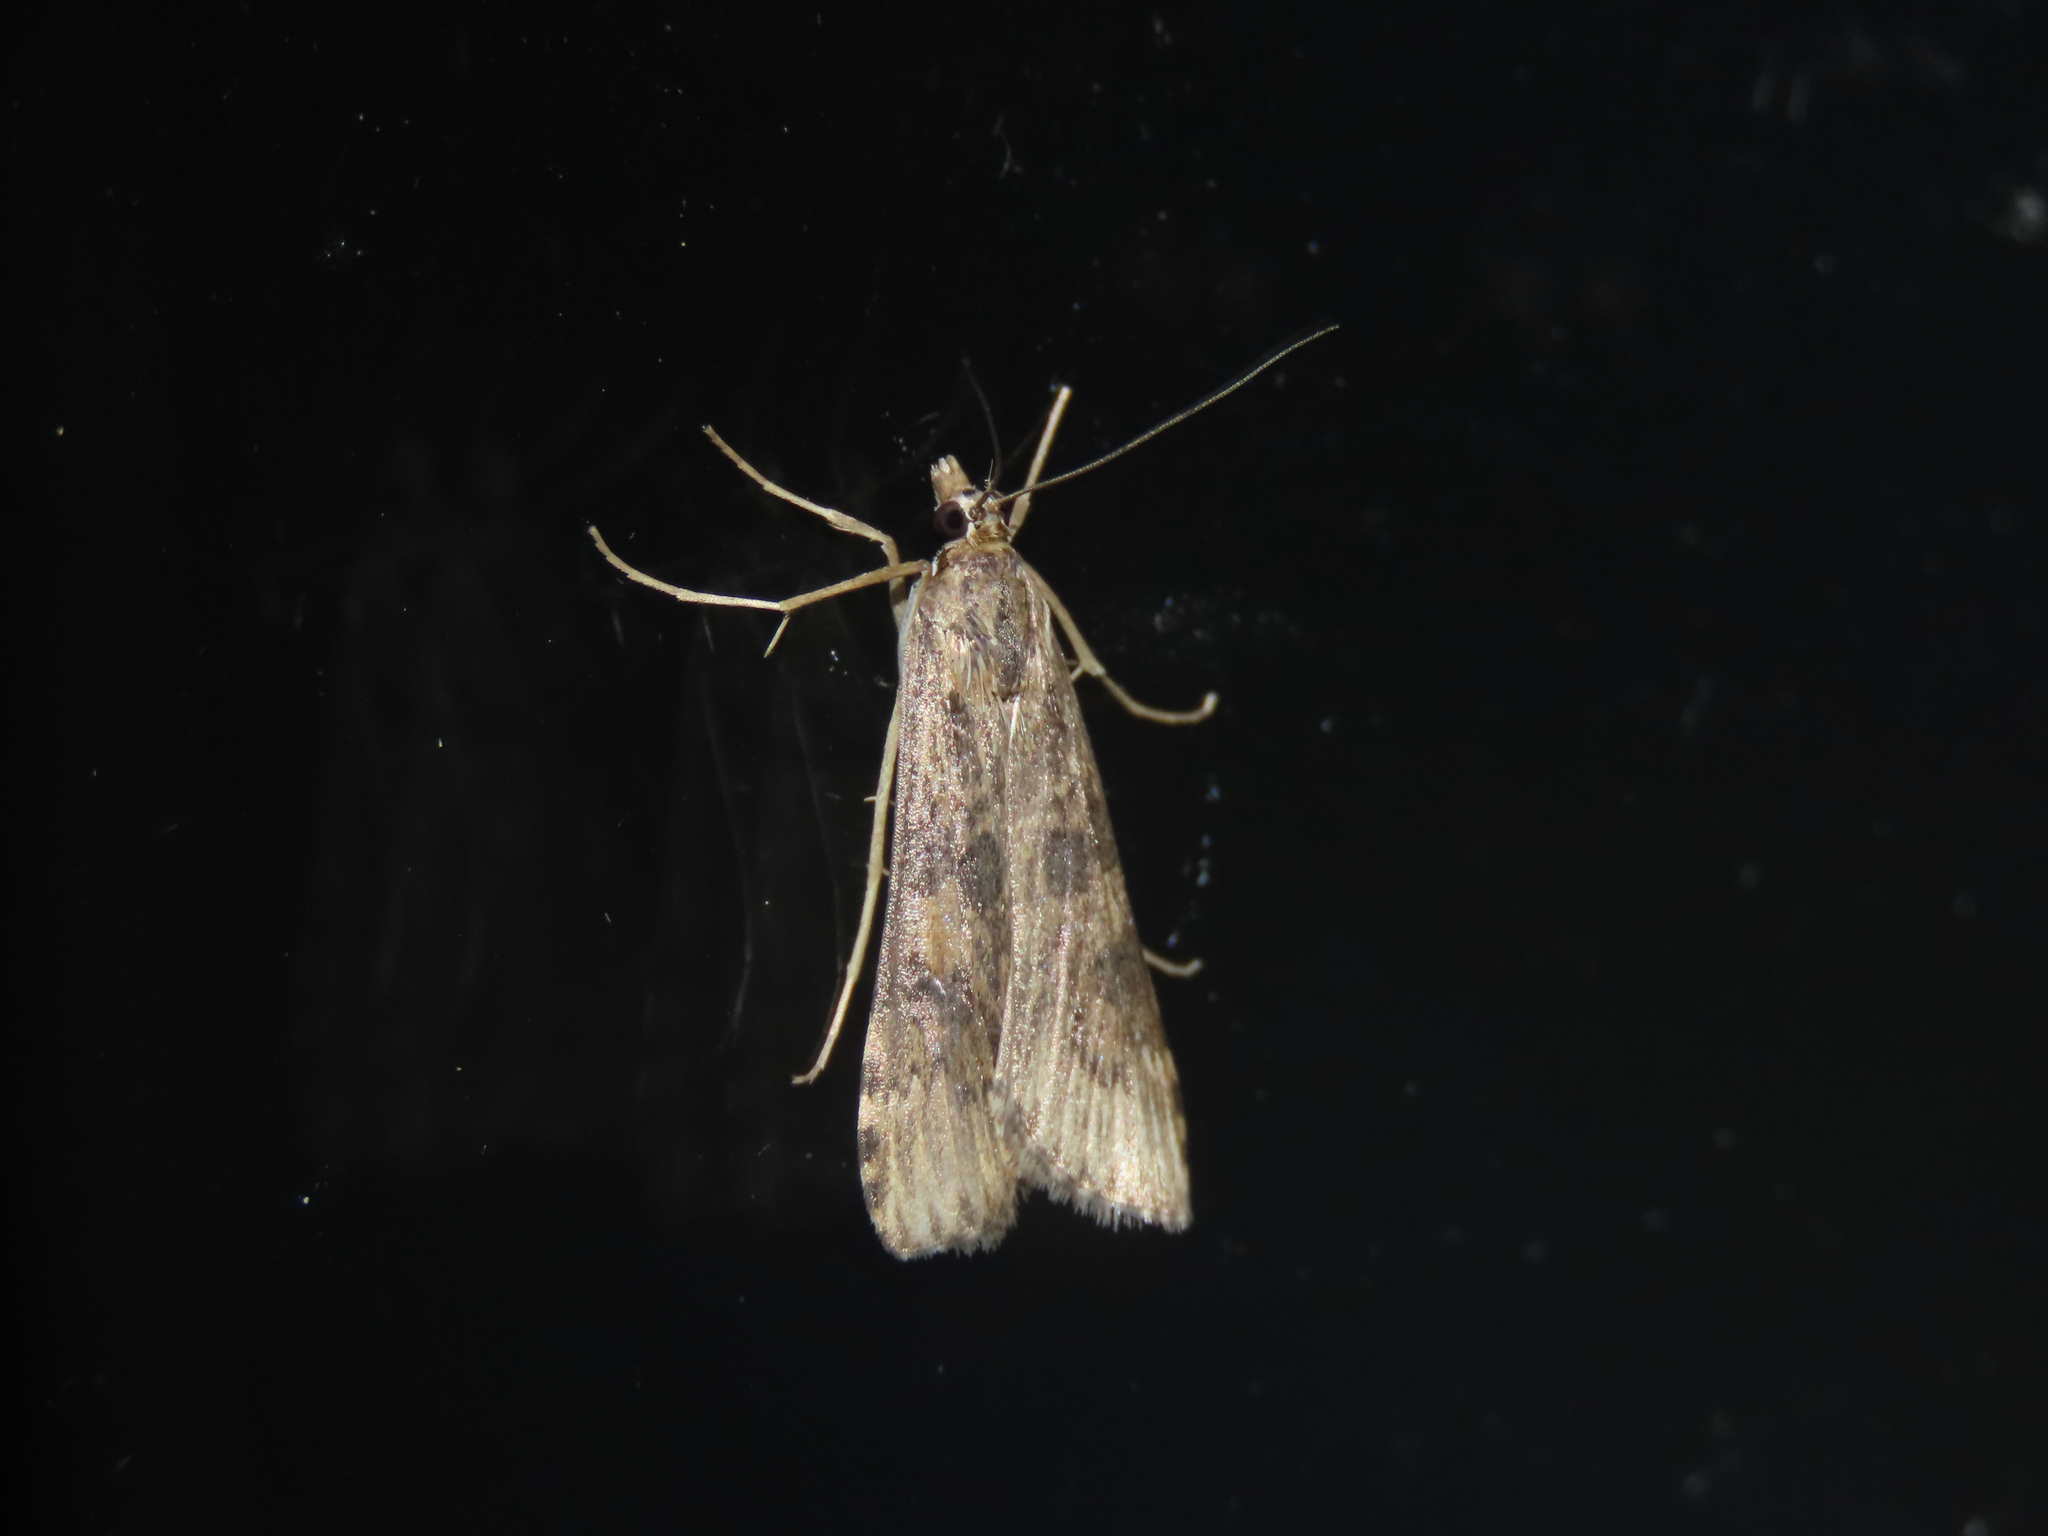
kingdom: Animalia
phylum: Arthropoda
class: Insecta
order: Lepidoptera
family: Crambidae
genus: Nomophila
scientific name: Nomophila nearctica
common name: American rush veneer
